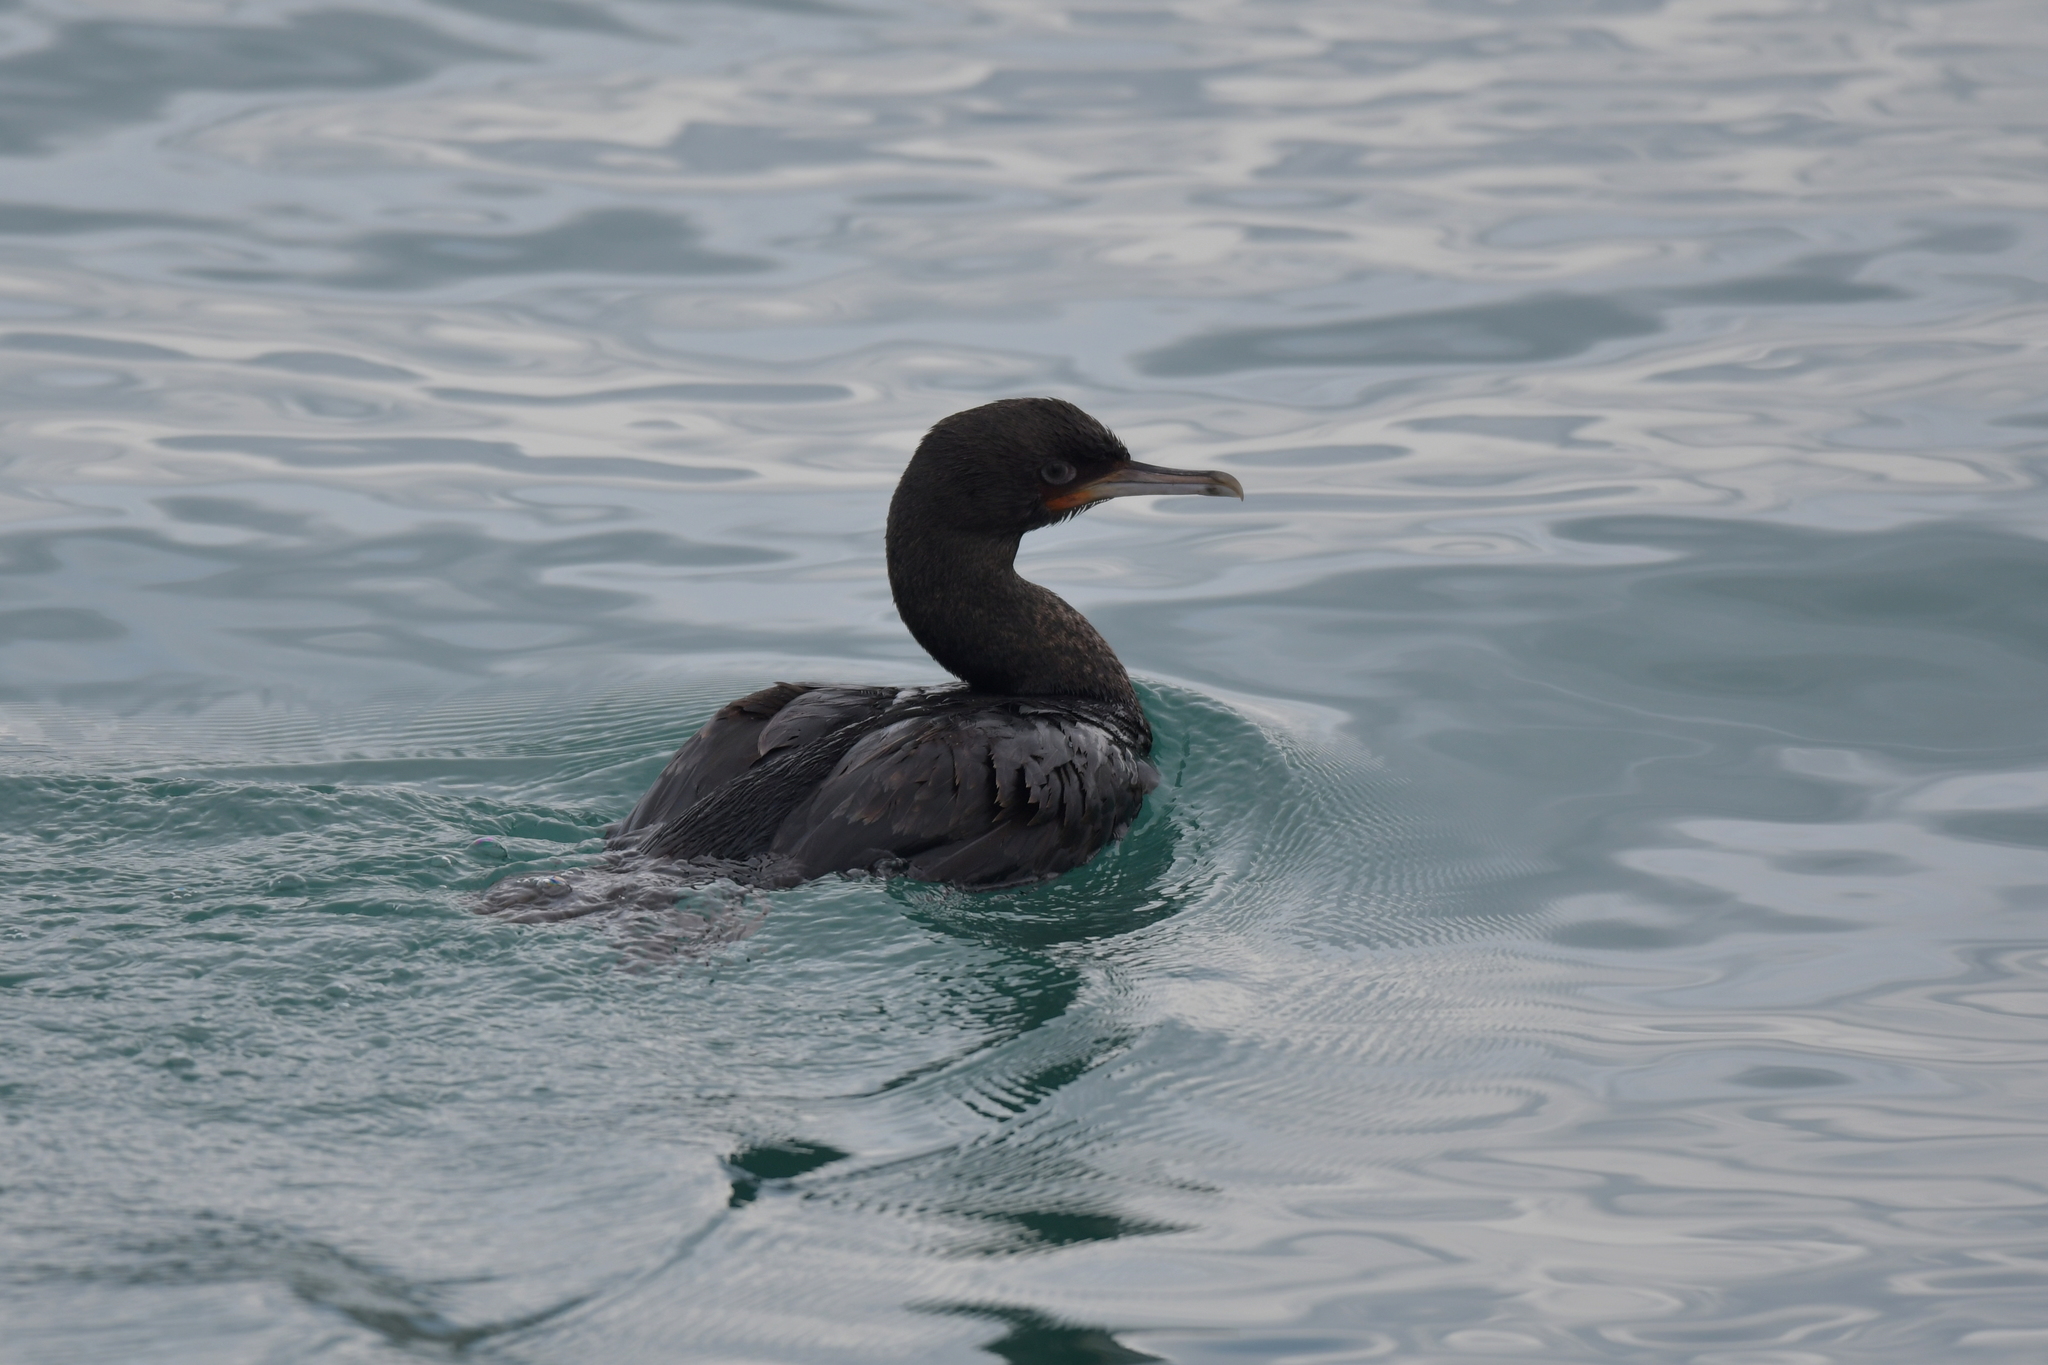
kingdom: Animalia
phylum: Chordata
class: Aves
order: Suliformes
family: Phalacrocoracidae
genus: Leucocarbo
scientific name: Leucocarbo chalconotus
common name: Stewart shag
